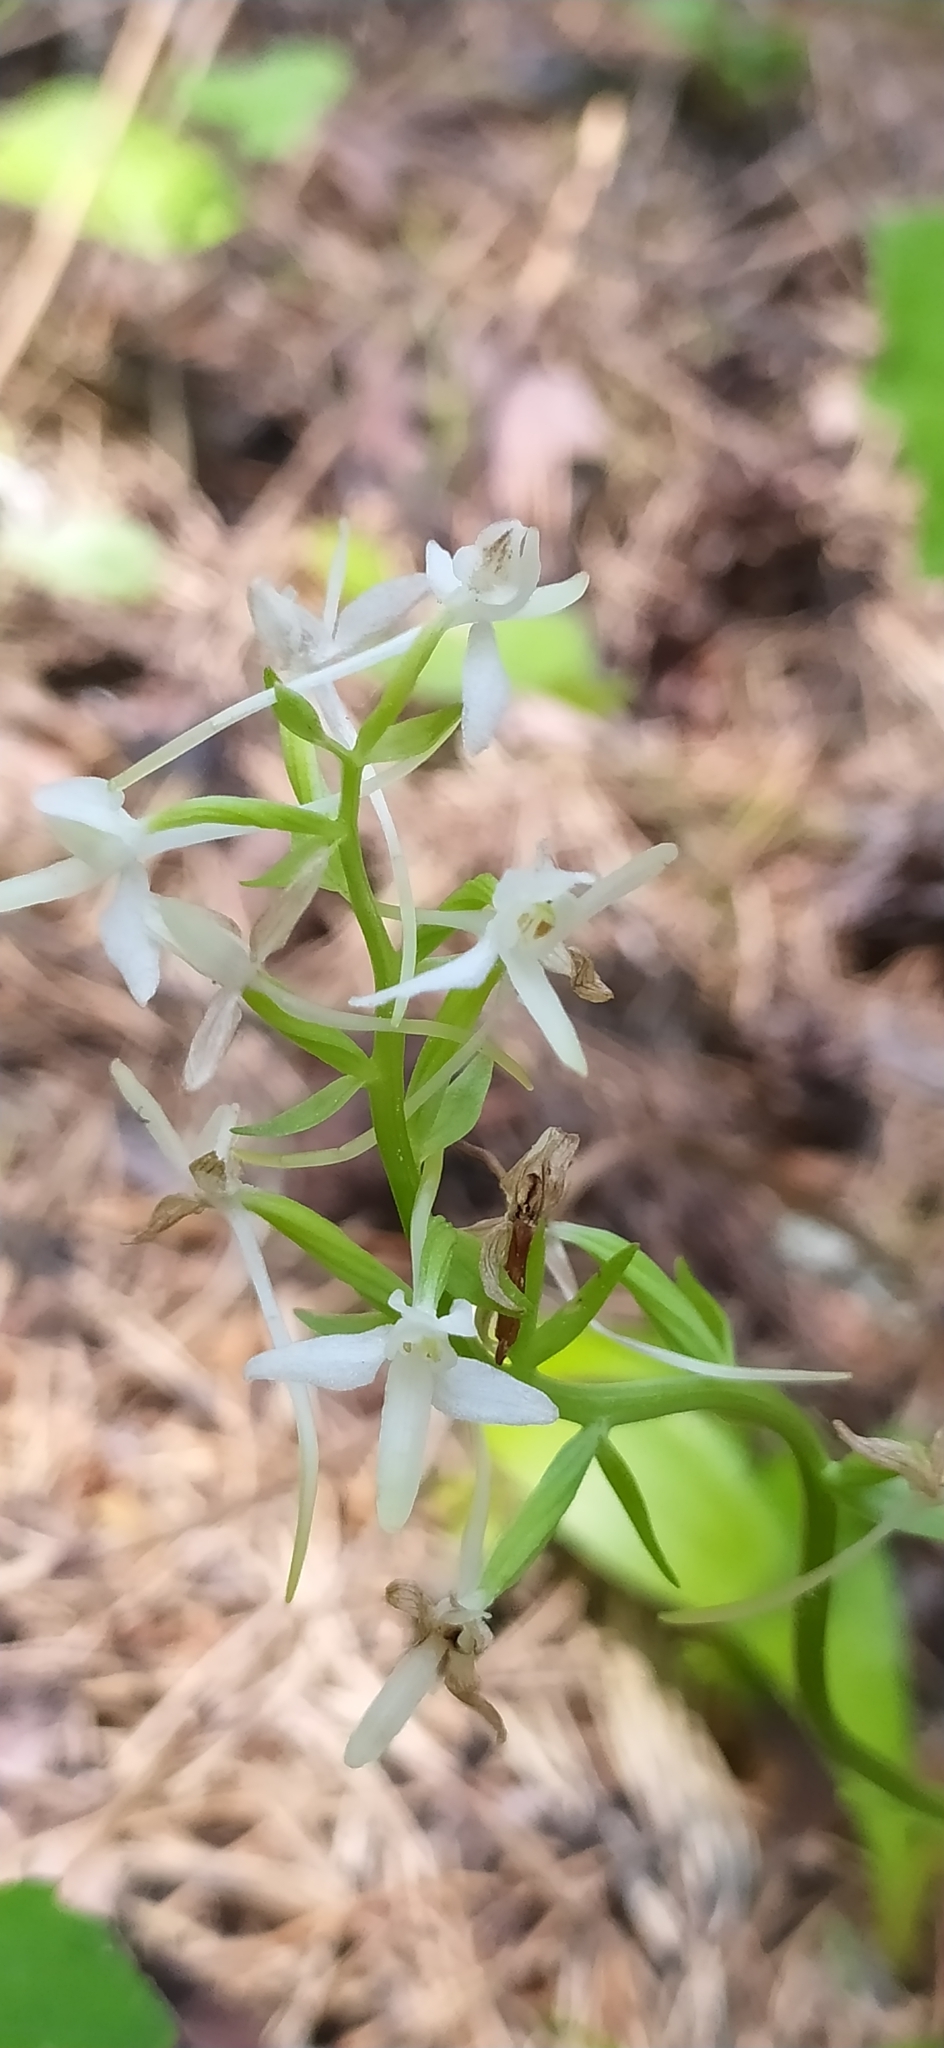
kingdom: Plantae
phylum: Tracheophyta
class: Liliopsida
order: Asparagales
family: Orchidaceae
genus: Platanthera
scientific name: Platanthera bifolia
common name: Lesser butterfly-orchid
